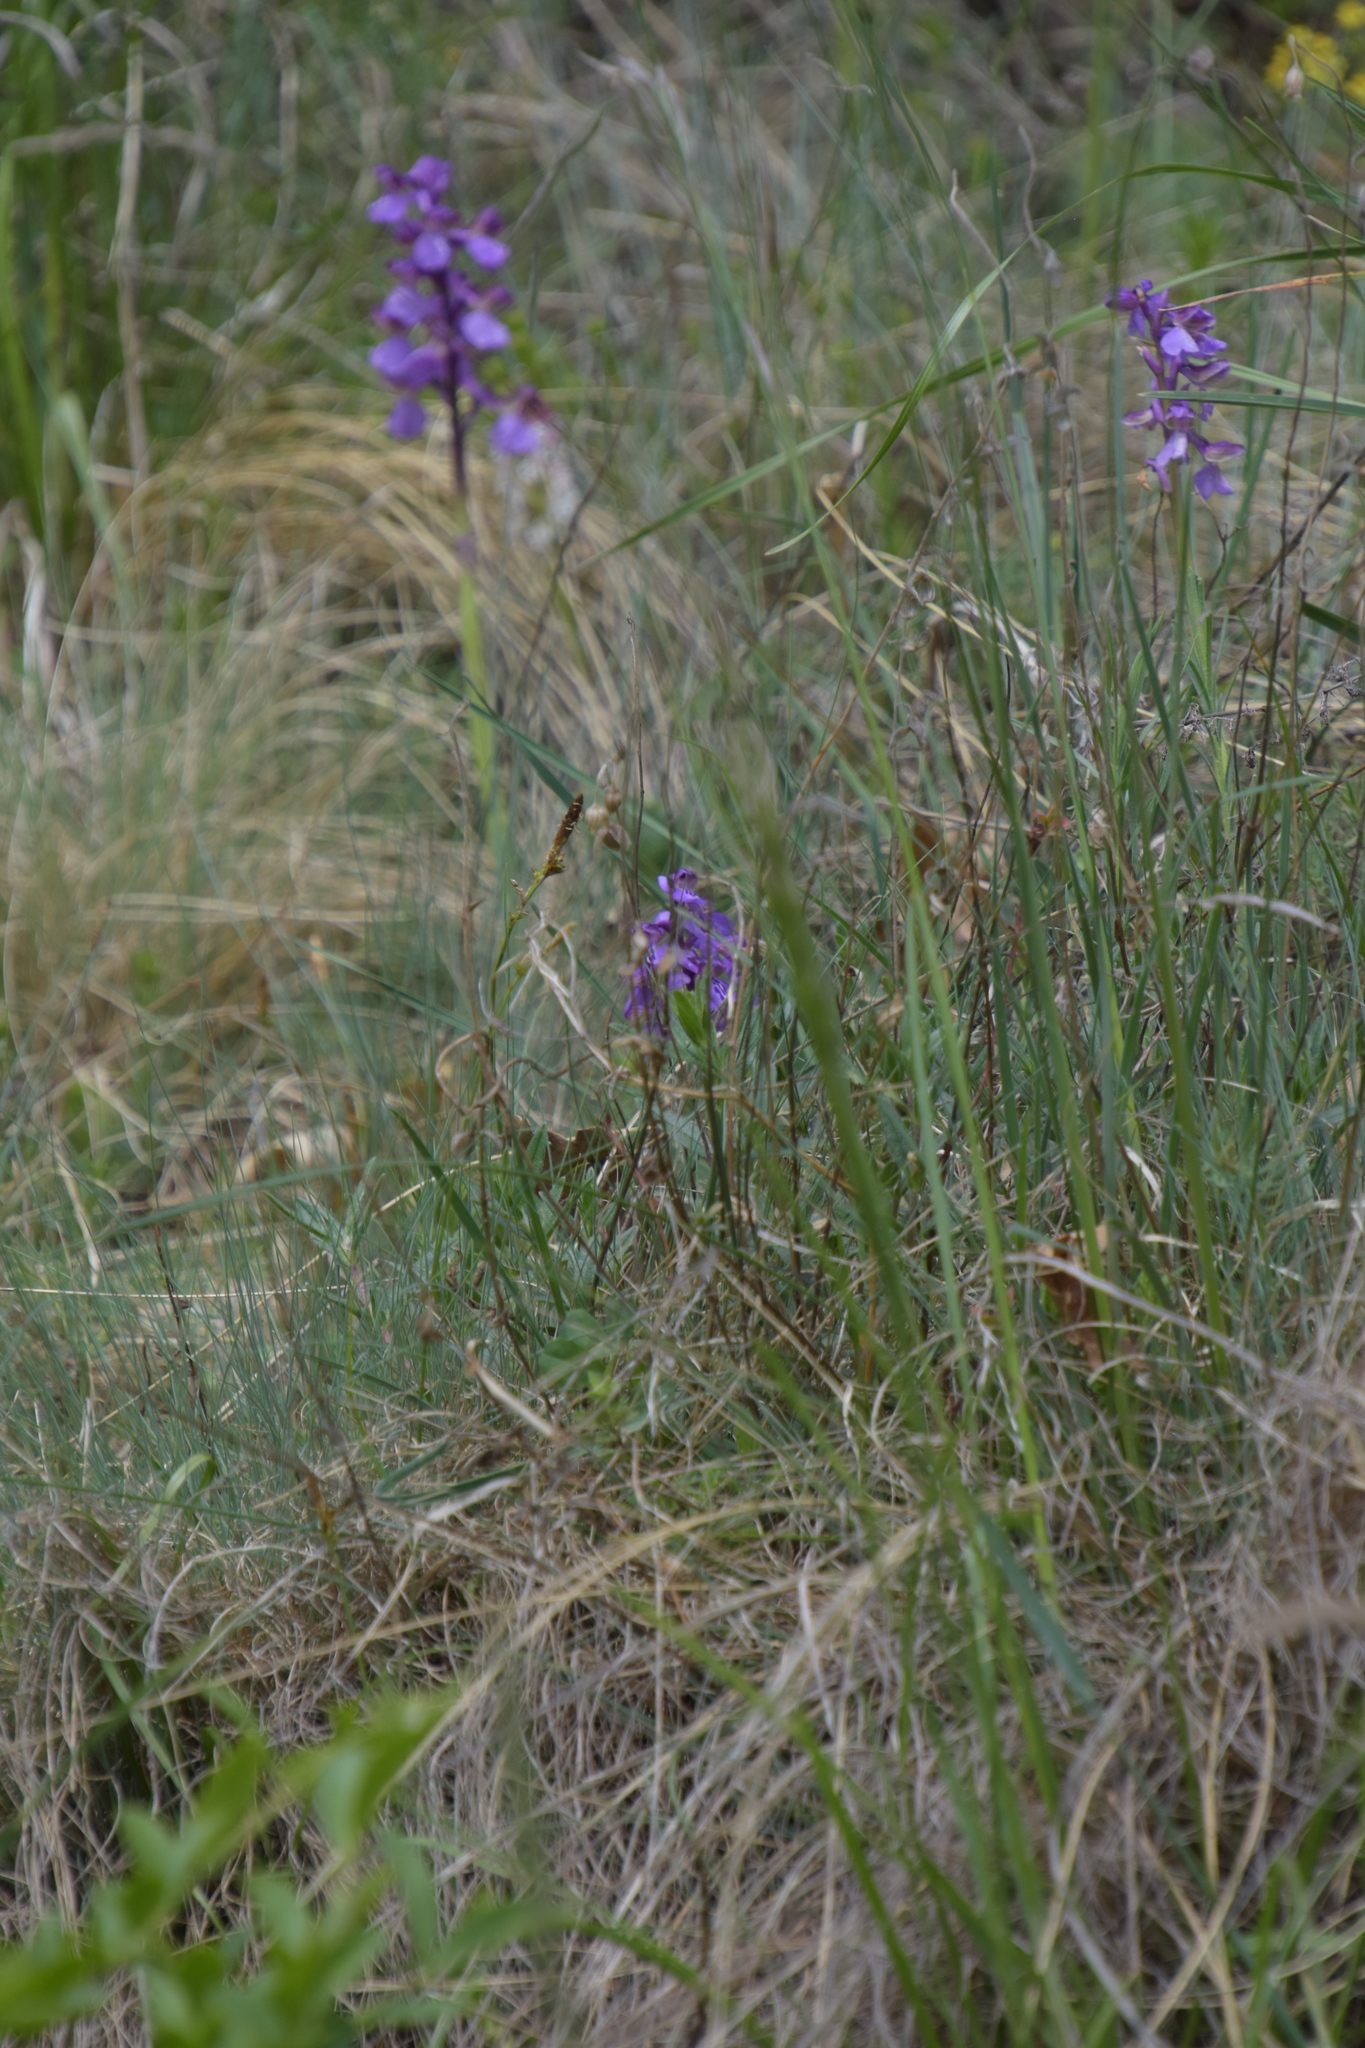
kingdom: Plantae
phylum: Tracheophyta
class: Liliopsida
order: Asparagales
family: Orchidaceae
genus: Anacamptis
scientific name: Anacamptis morio
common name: Green-winged orchid
